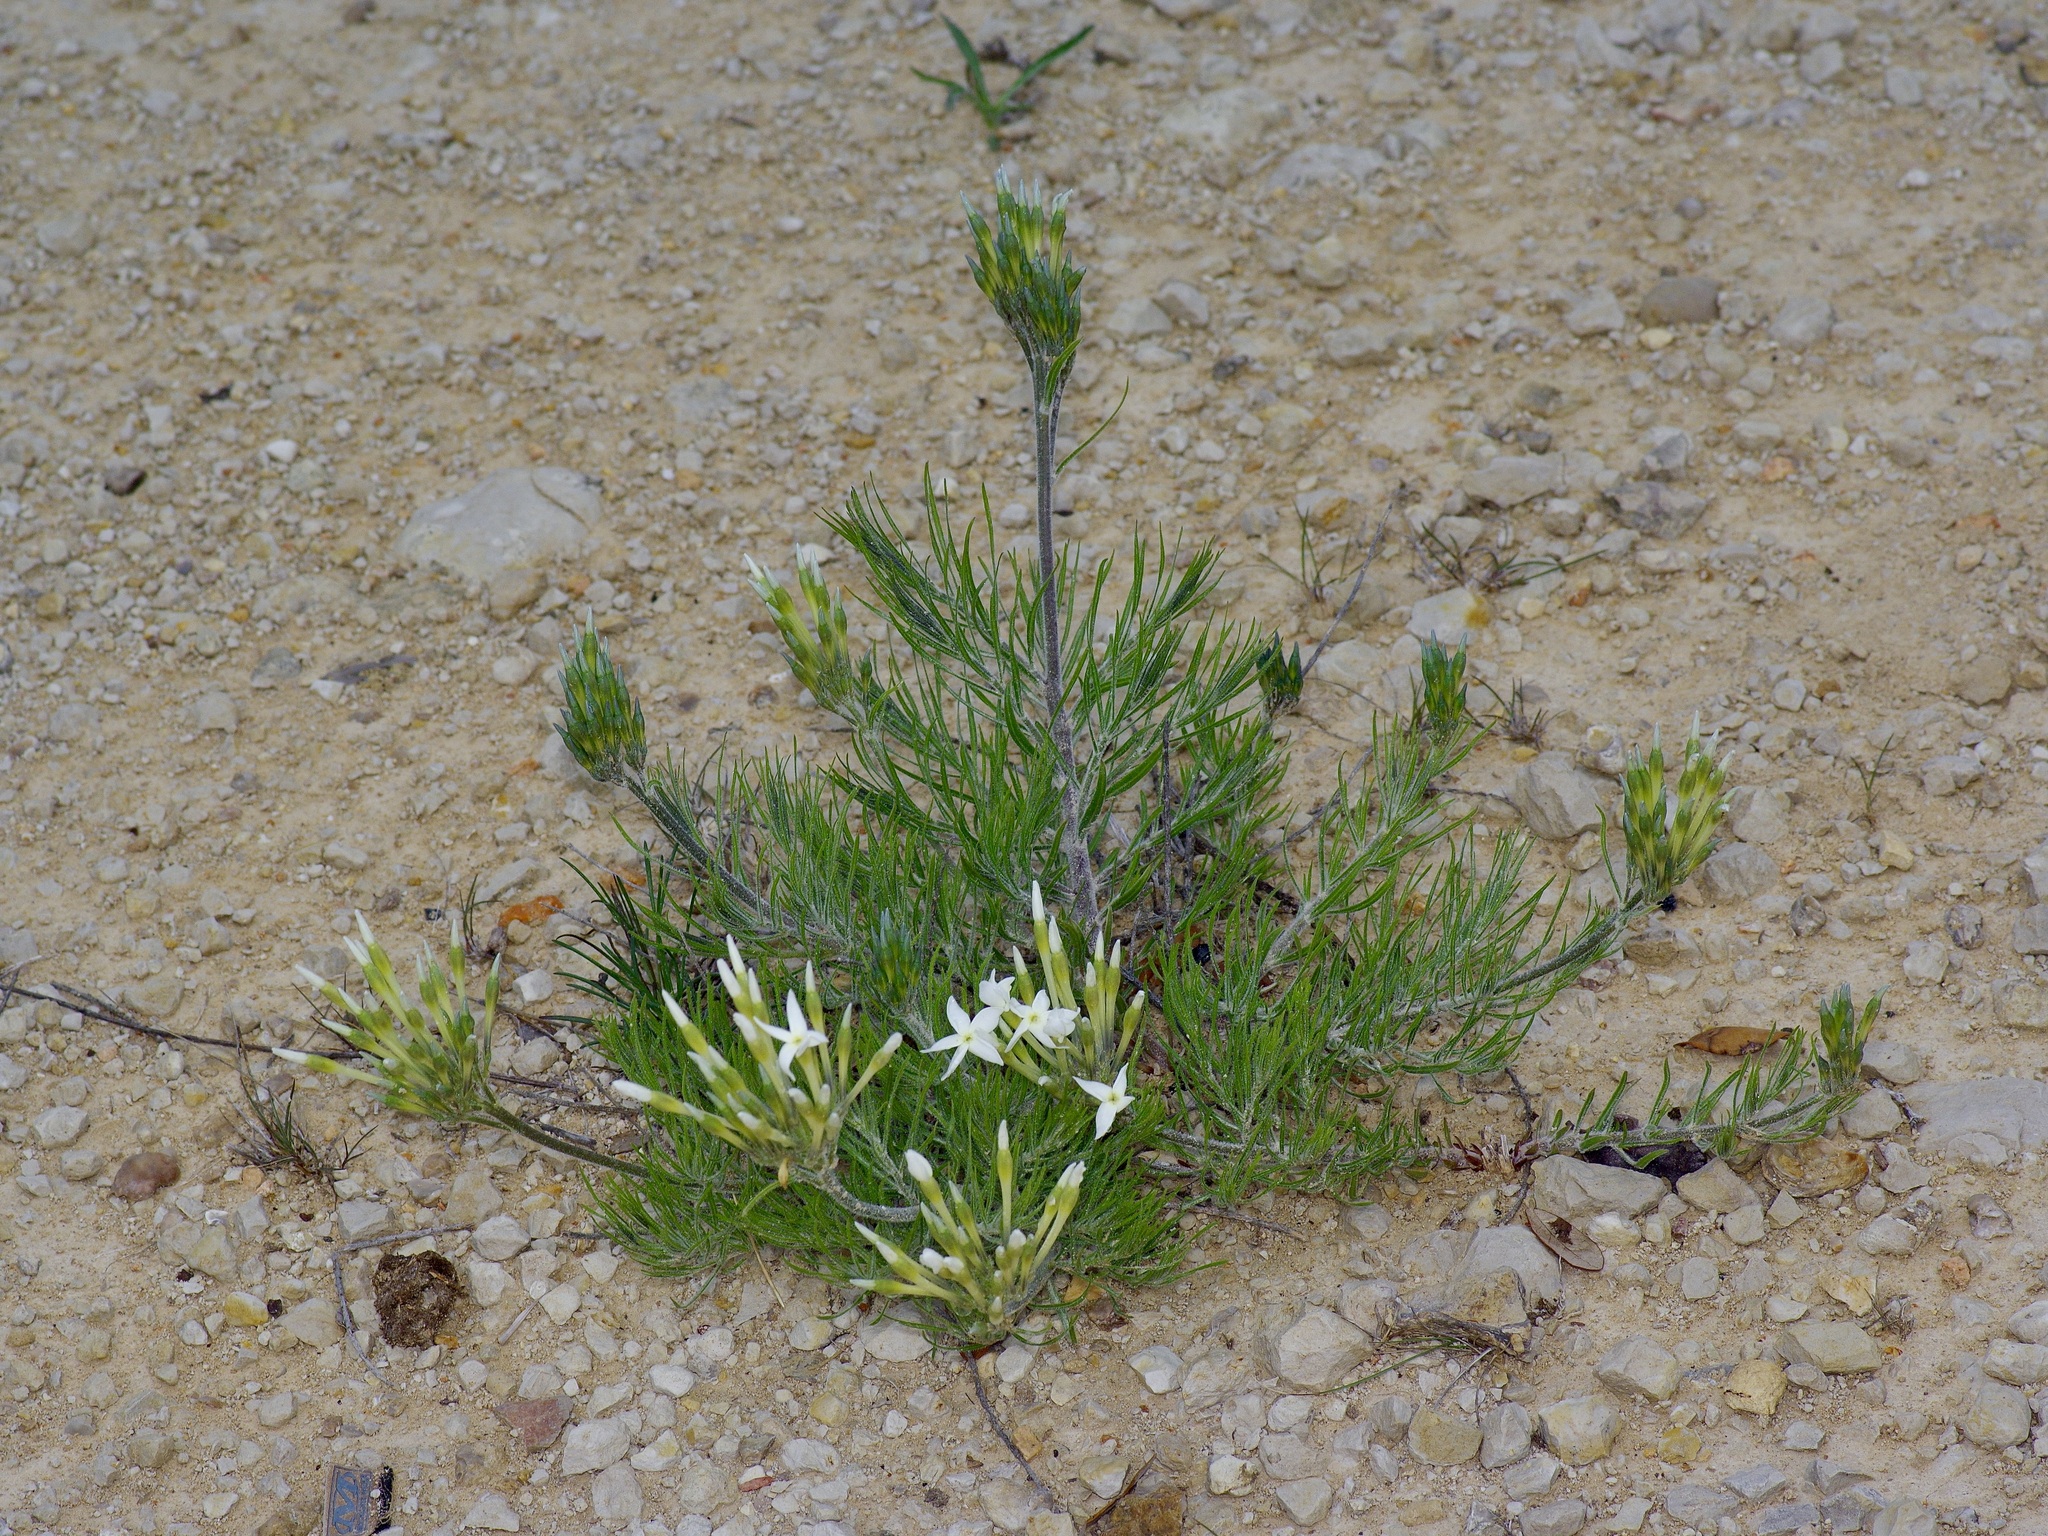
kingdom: Plantae
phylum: Tracheophyta
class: Magnoliopsida
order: Gentianales
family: Apocynaceae
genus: Amsonia
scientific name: Amsonia longiflora
